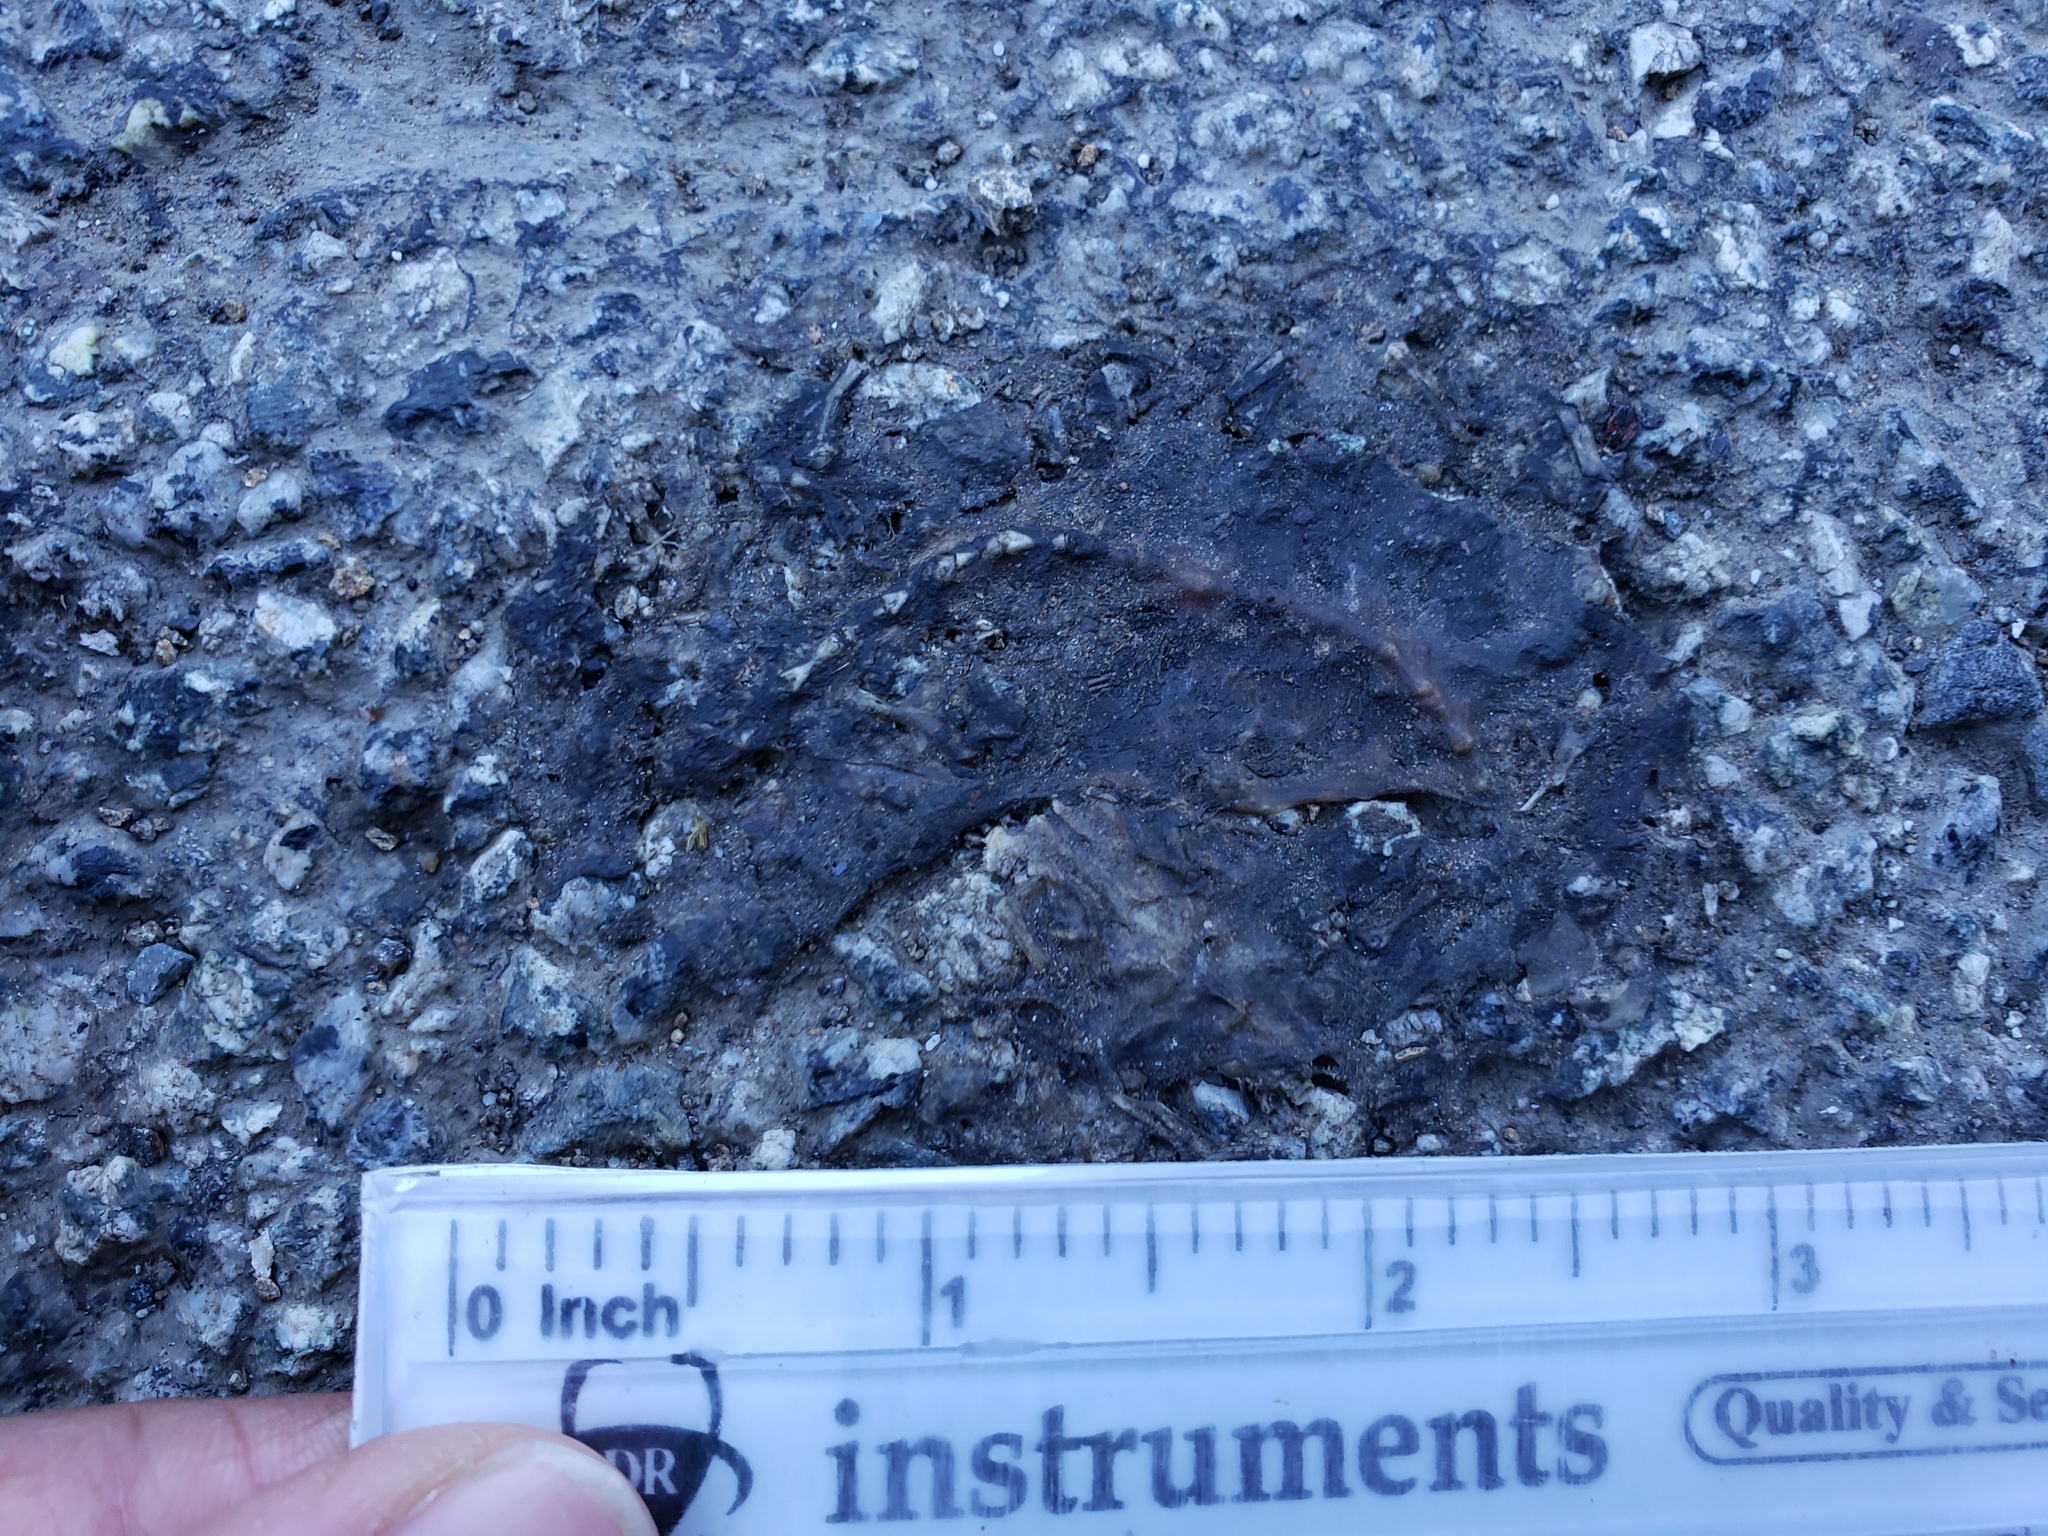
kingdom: Animalia
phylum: Chordata
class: Amphibia
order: Caudata
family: Salamandridae
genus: Taricha
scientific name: Taricha
